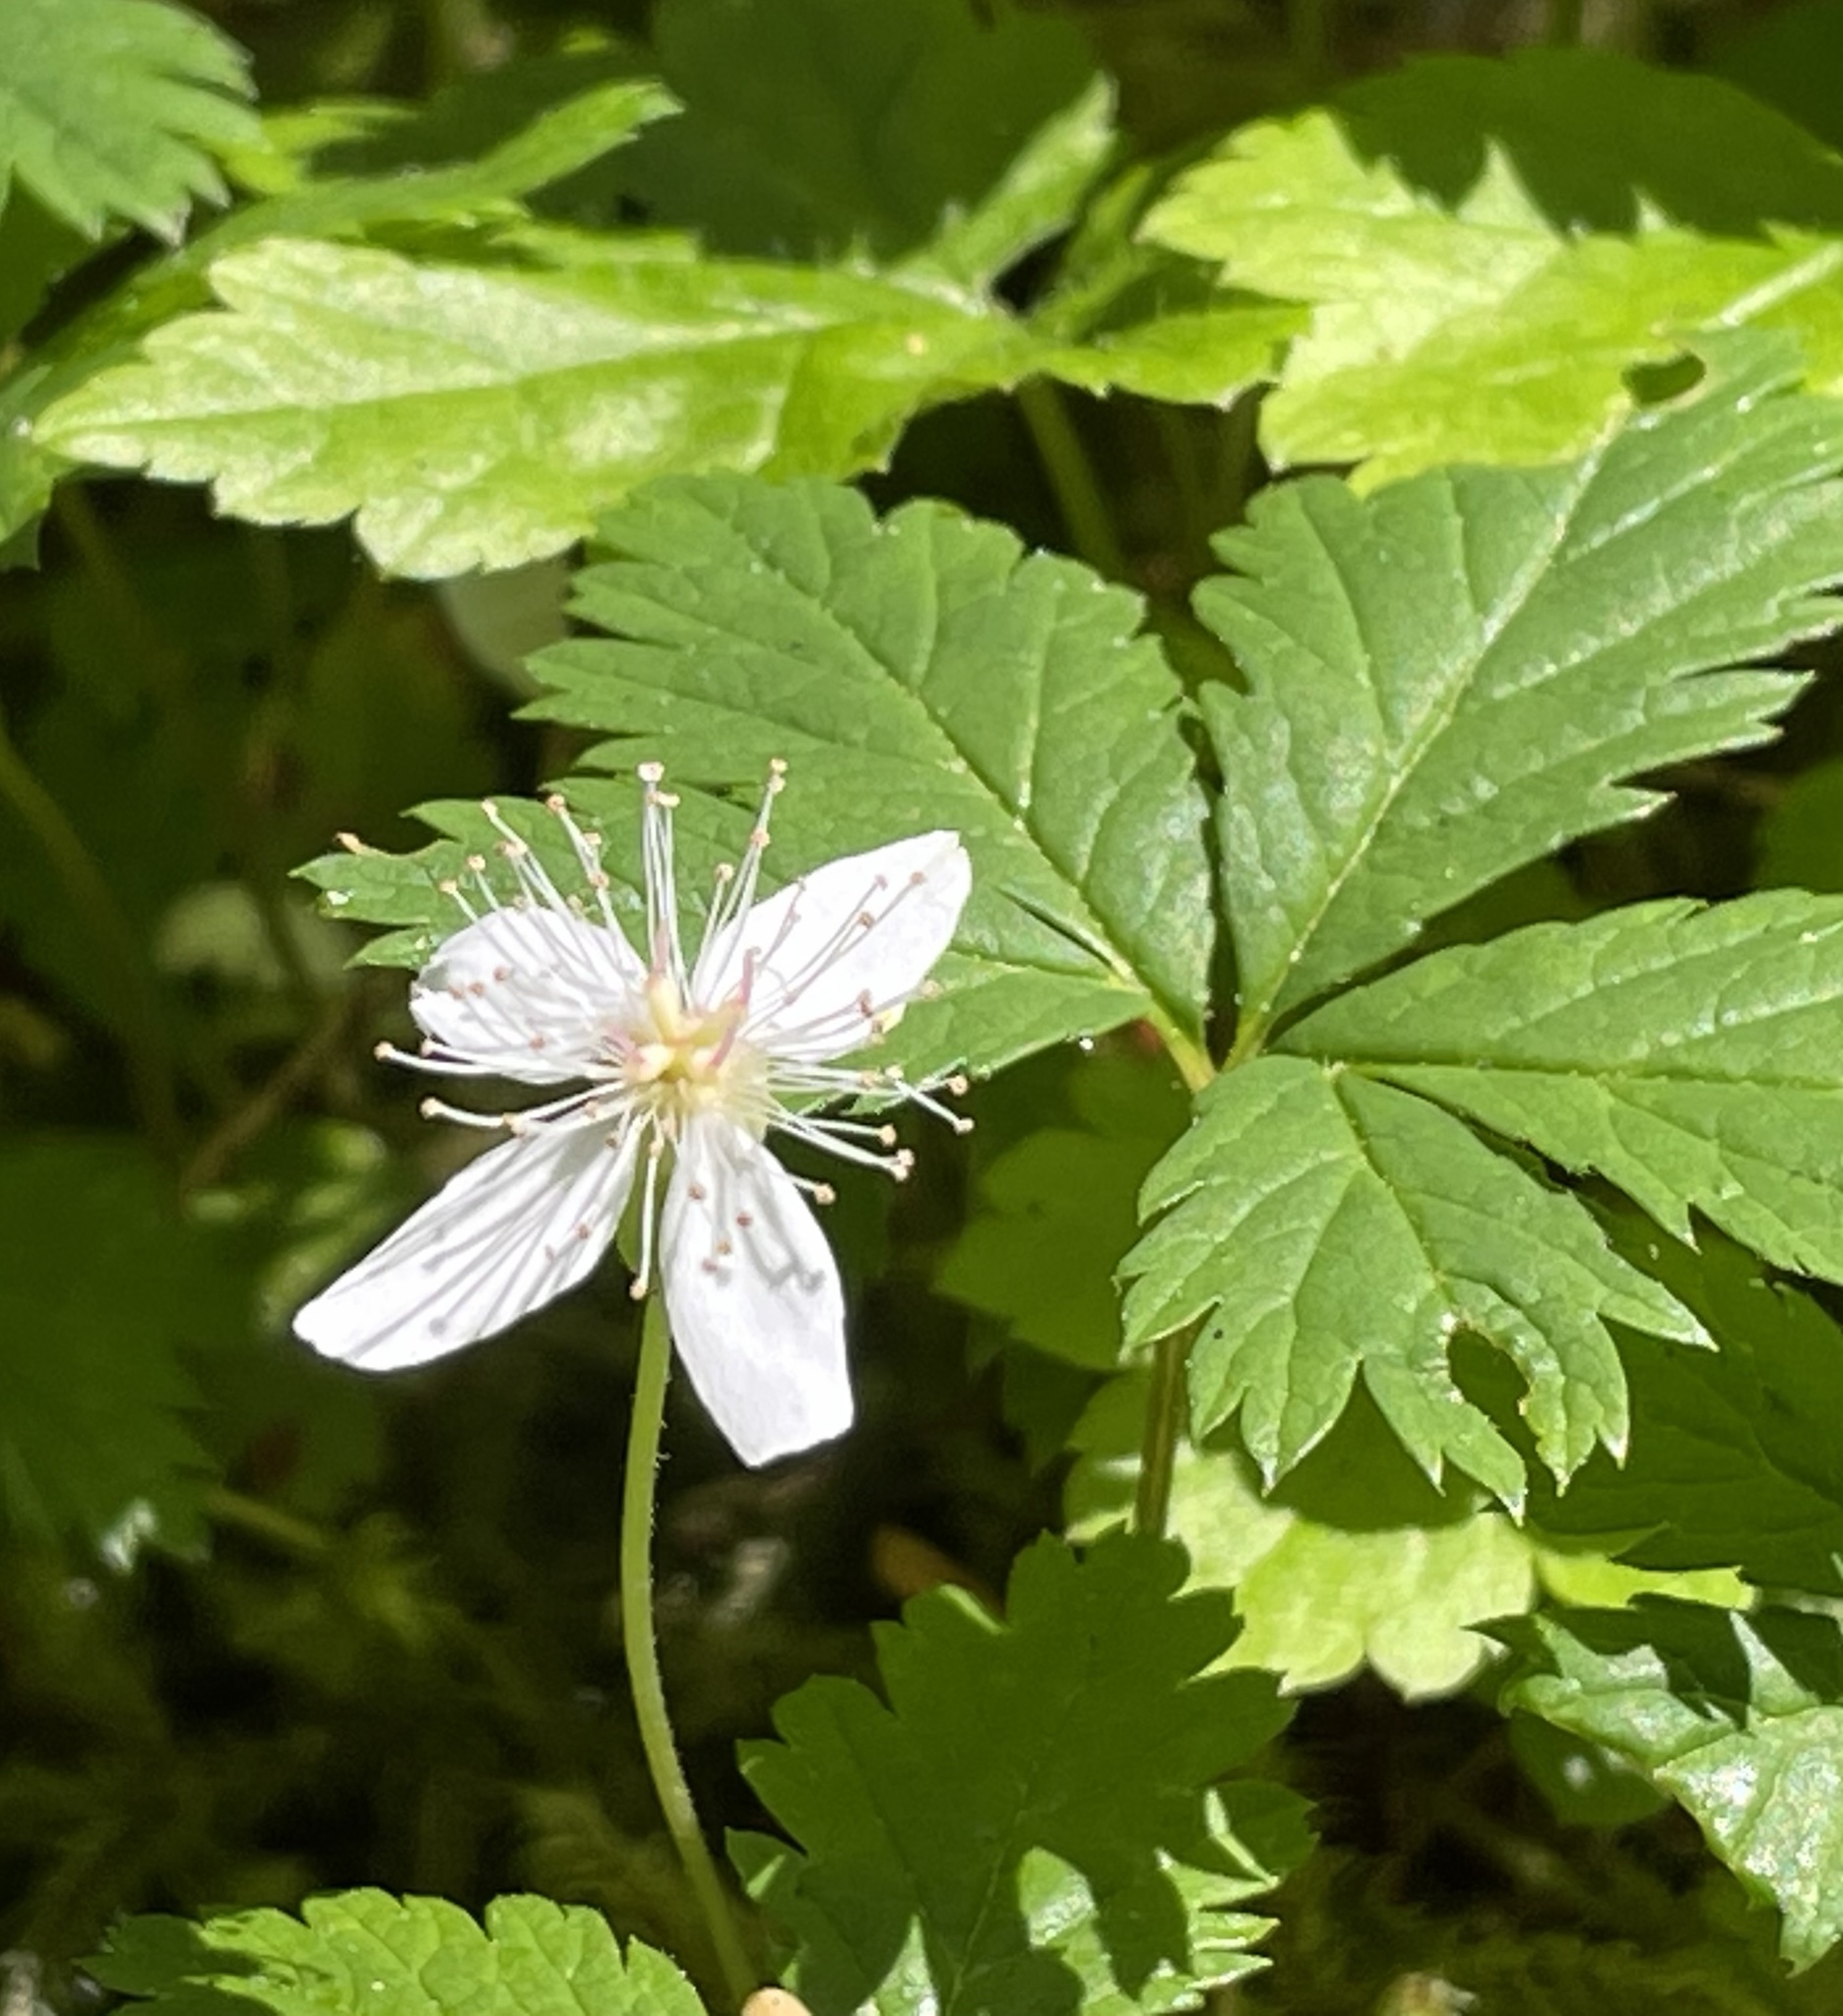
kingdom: Plantae
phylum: Tracheophyta
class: Magnoliopsida
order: Rosales
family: Rosaceae
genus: Rubus
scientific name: Rubus pedatus
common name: Creeping raspberry
